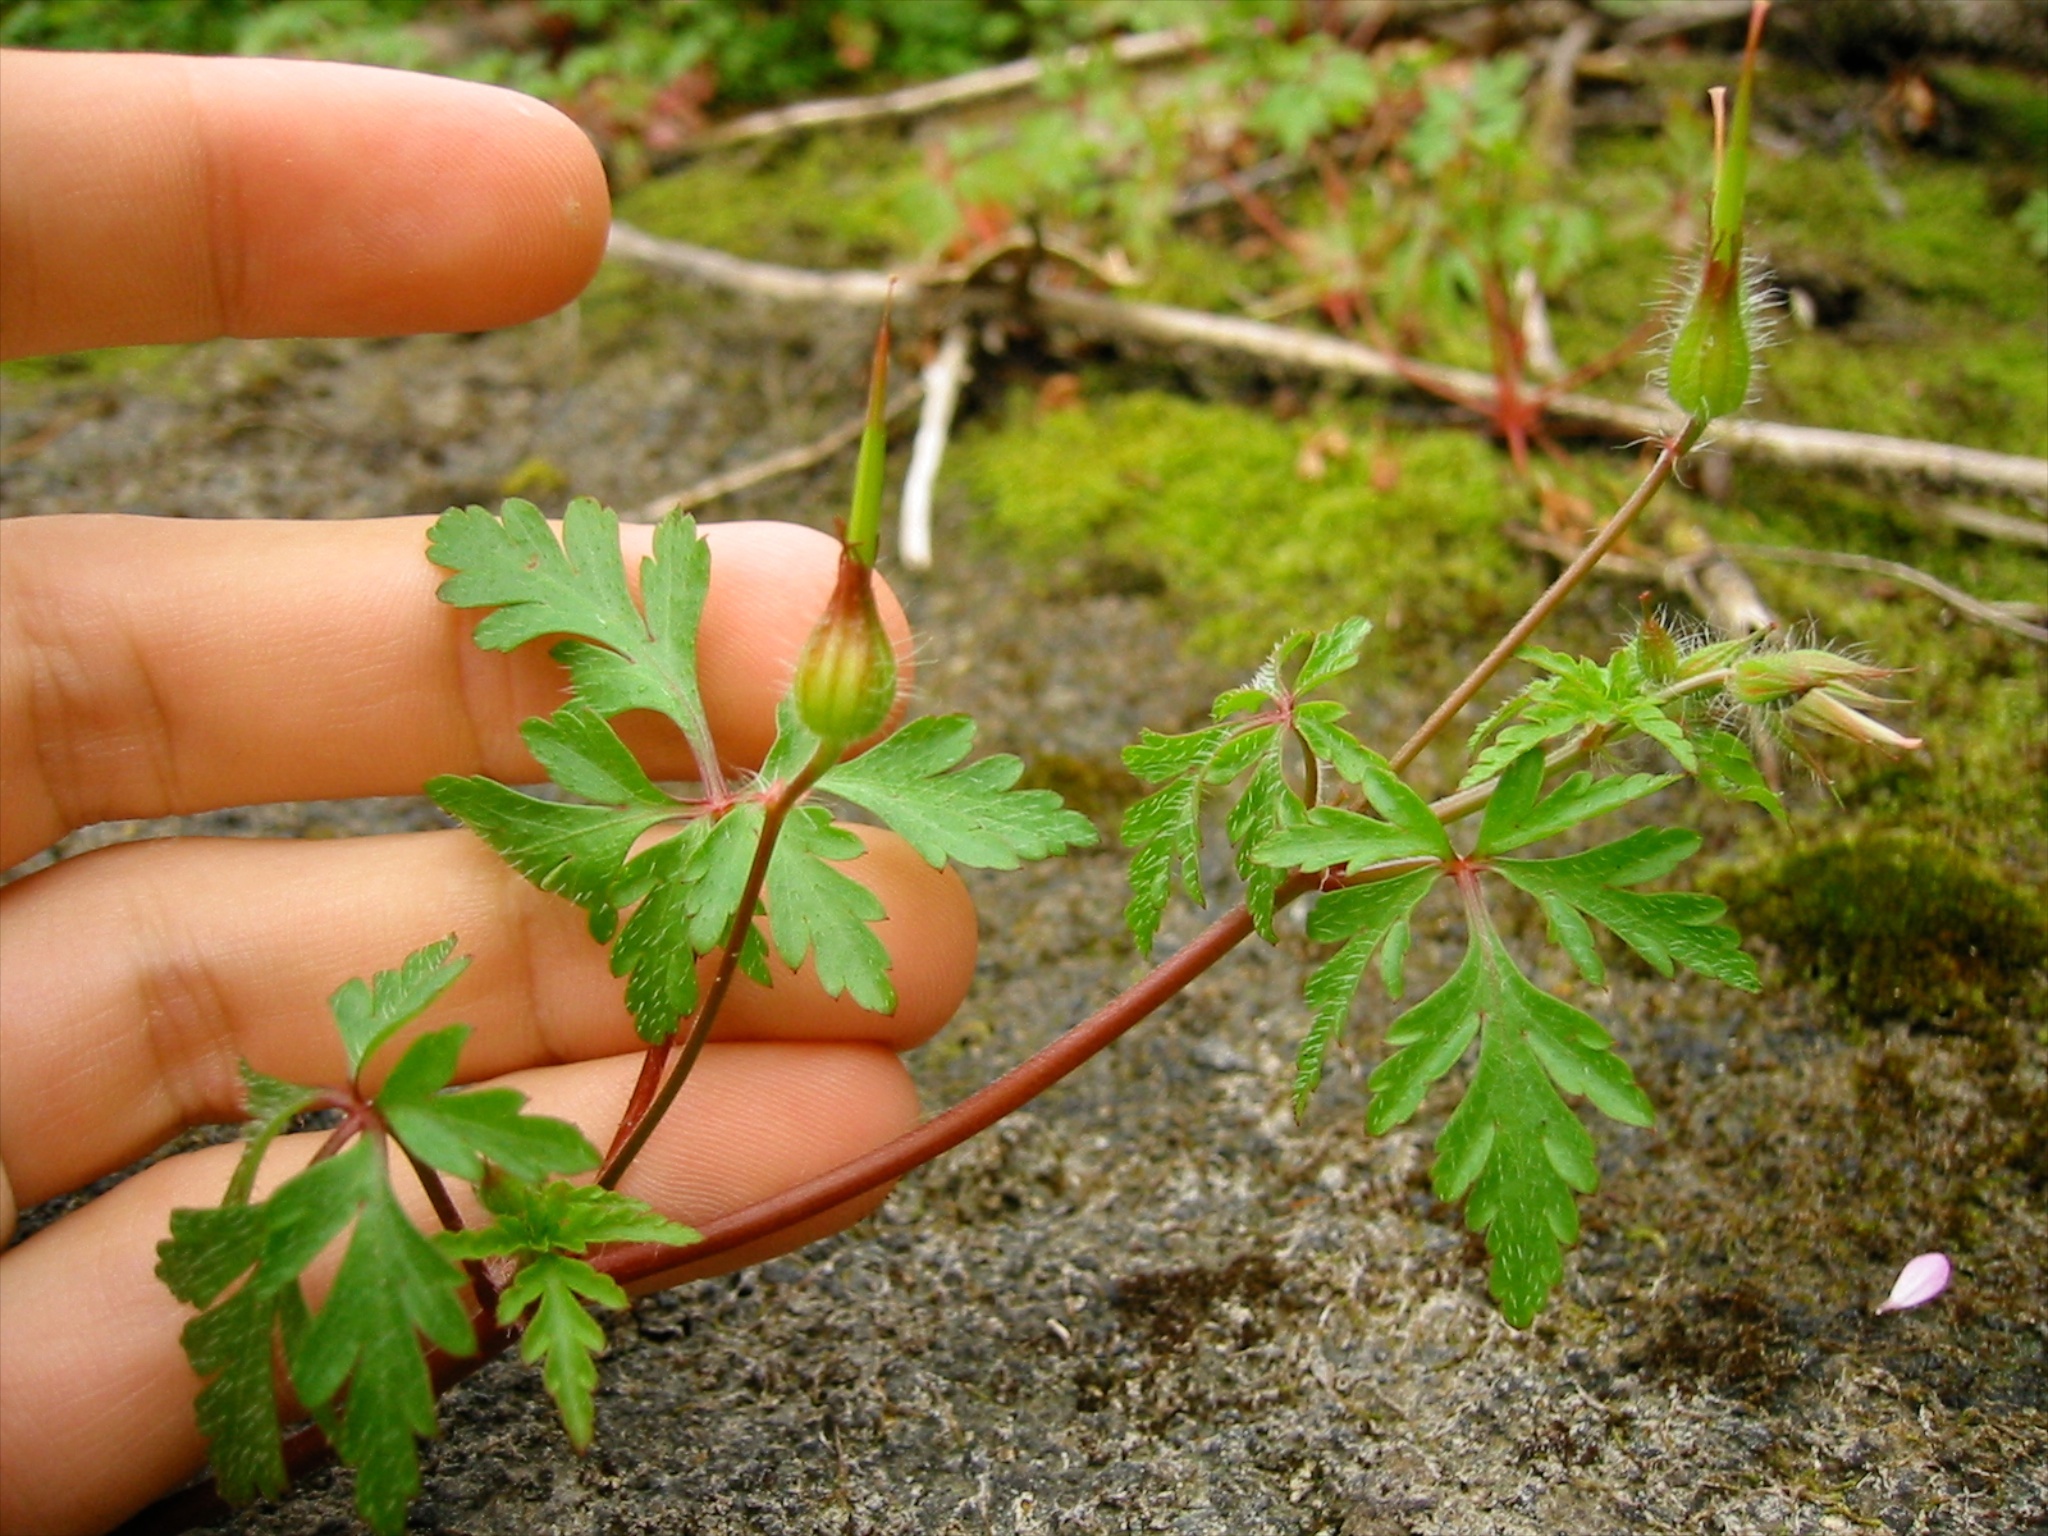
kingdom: Plantae
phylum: Tracheophyta
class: Magnoliopsida
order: Geraniales
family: Geraniaceae
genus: Geranium
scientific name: Geranium robertianum
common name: Herb-robert
